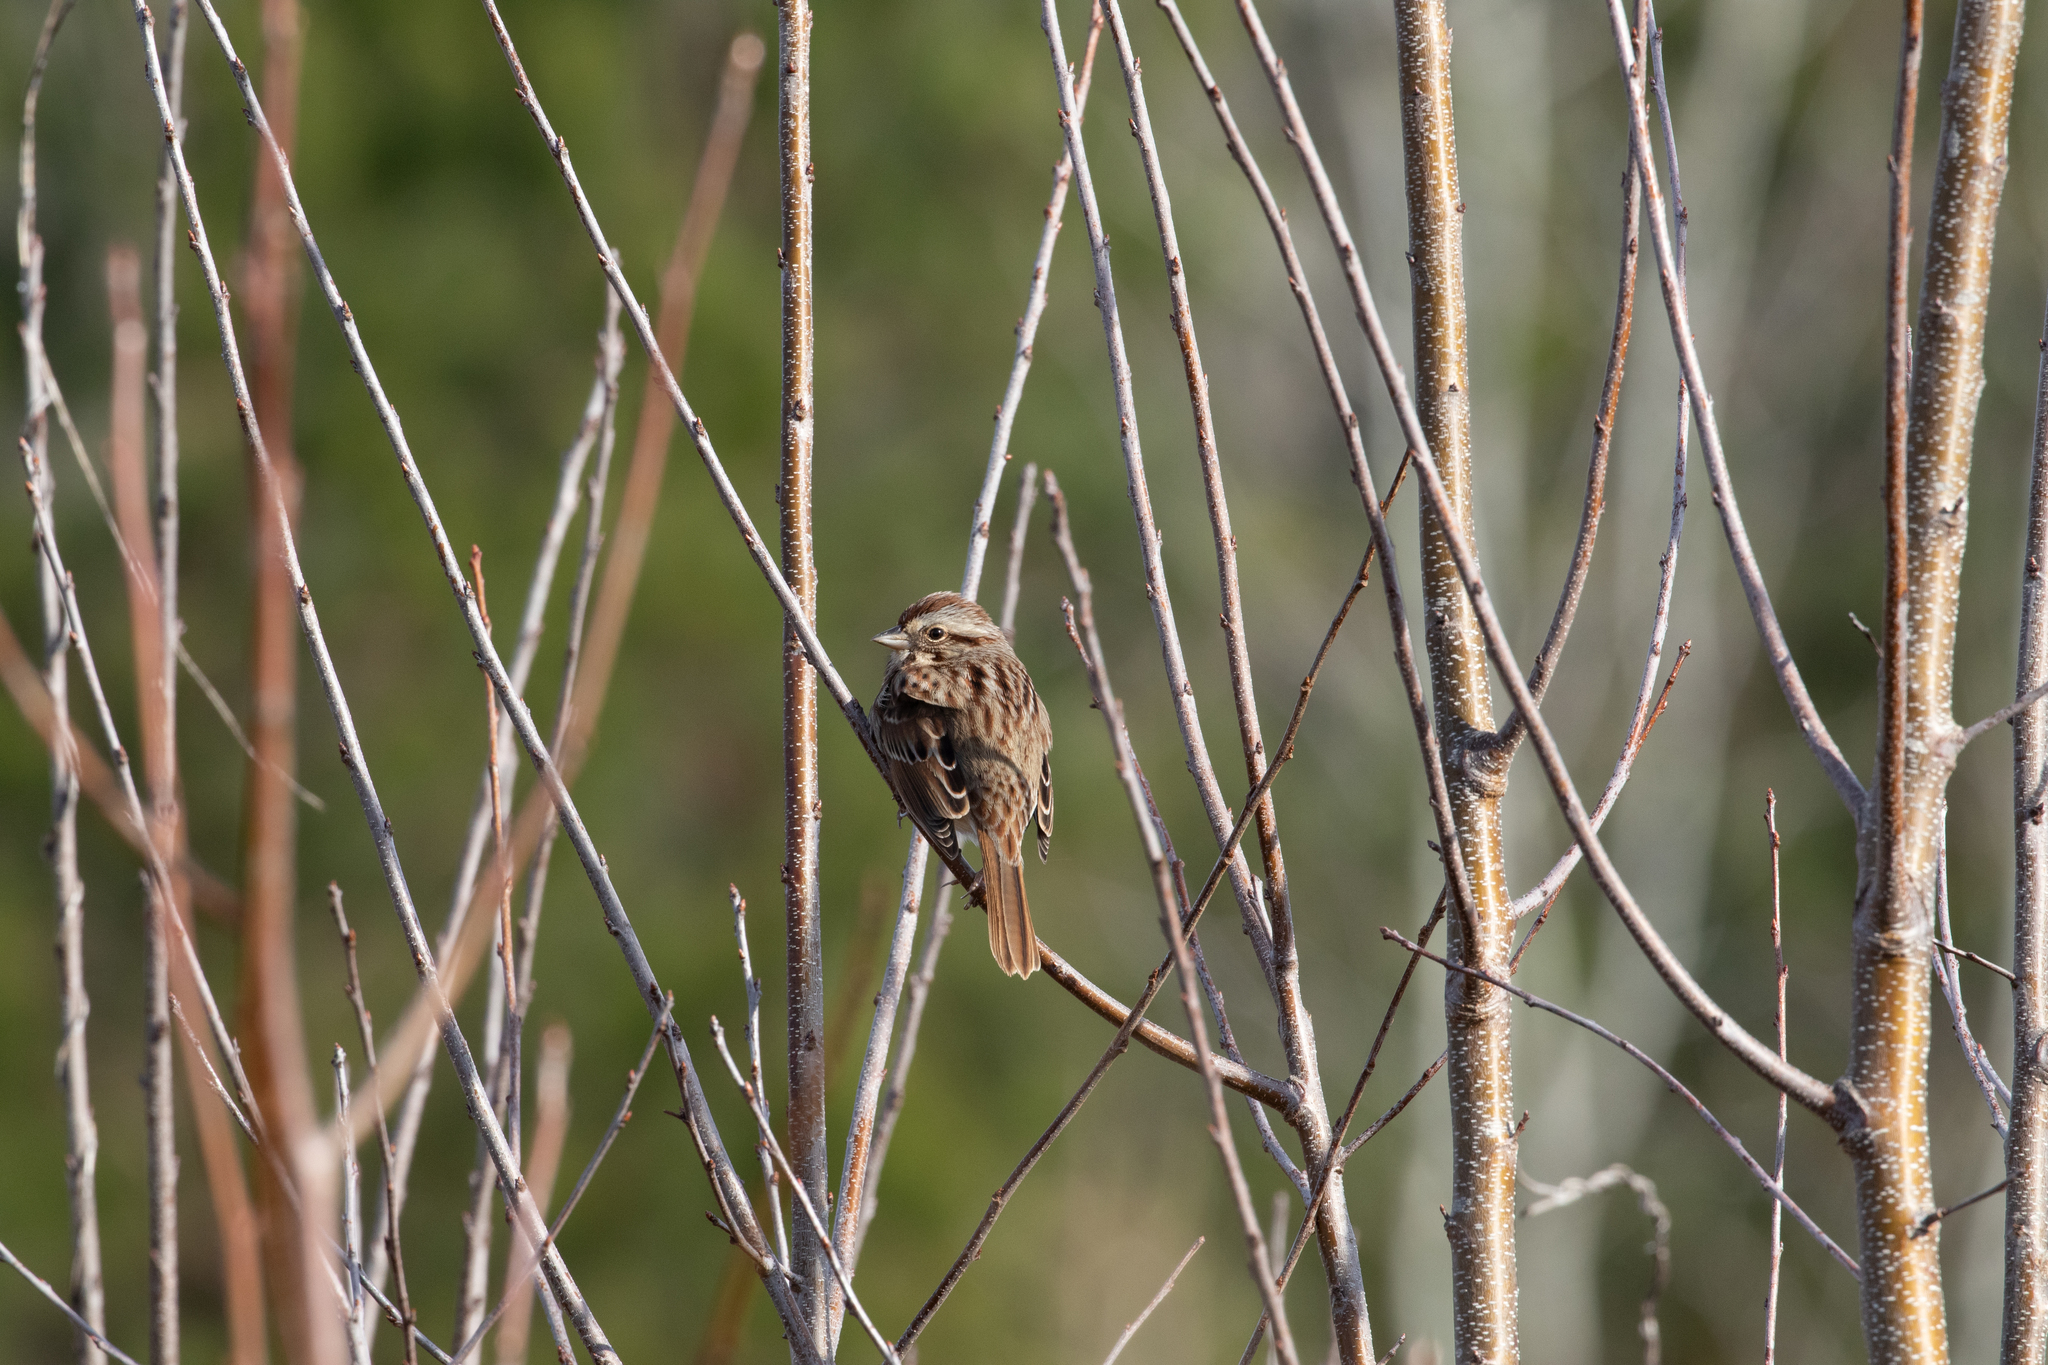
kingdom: Animalia
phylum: Chordata
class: Aves
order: Passeriformes
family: Passerellidae
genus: Melospiza
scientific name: Melospiza melodia
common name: Song sparrow
